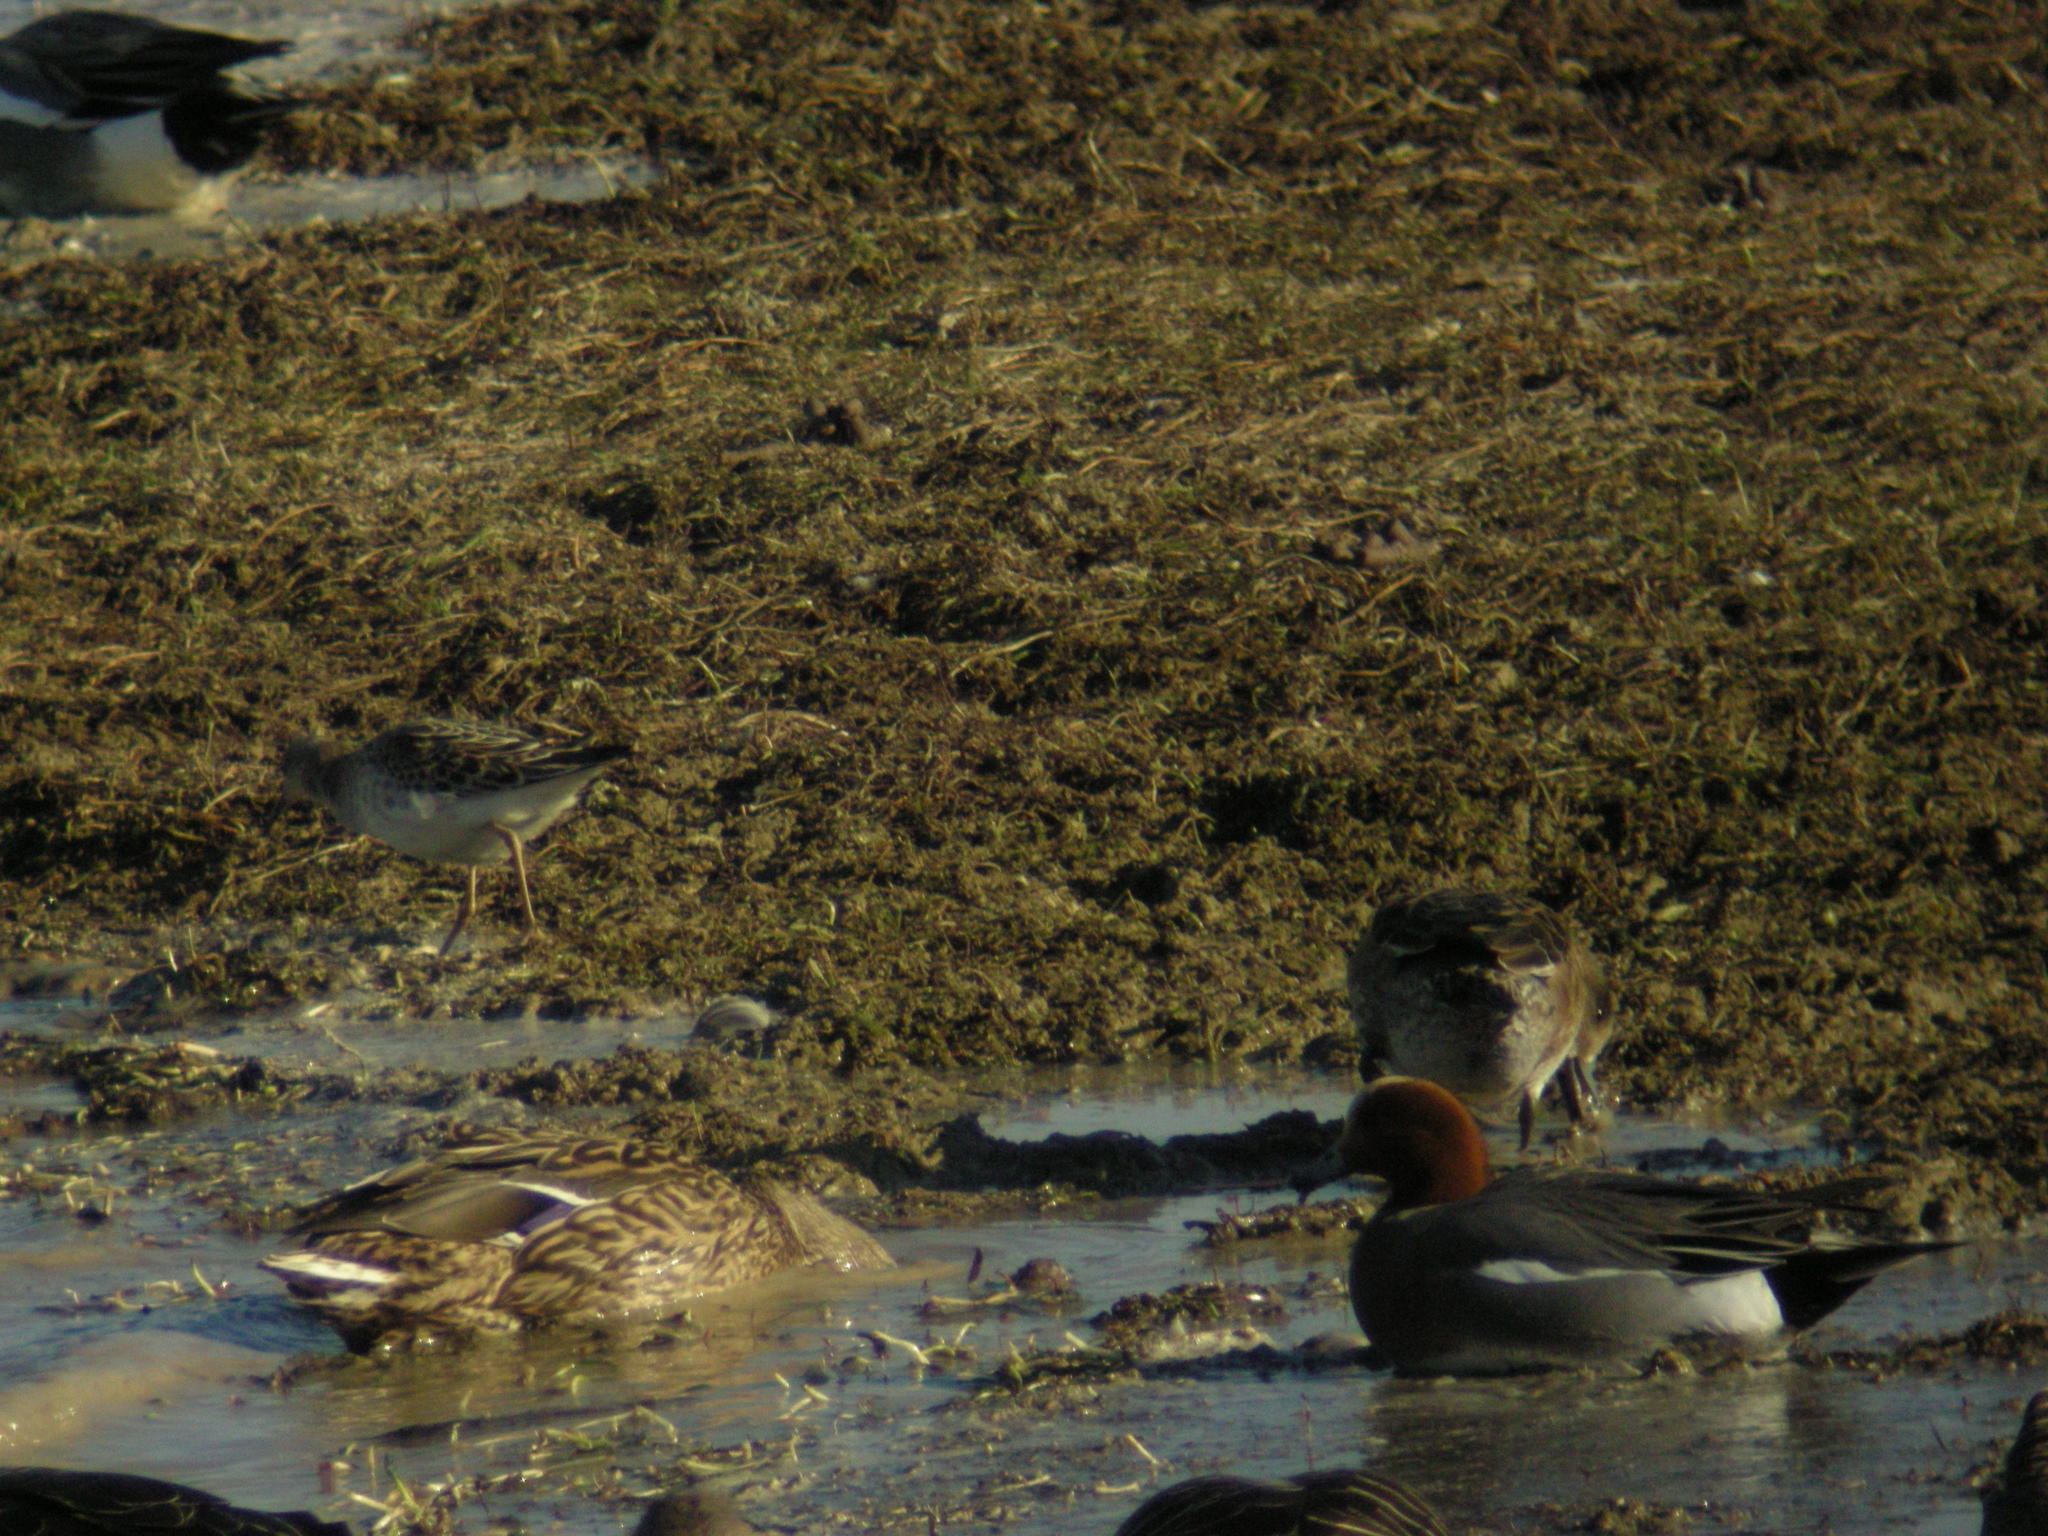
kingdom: Animalia
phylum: Chordata
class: Aves
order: Charadriiformes
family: Scolopacidae
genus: Calidris
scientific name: Calidris pugnax
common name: Ruff
